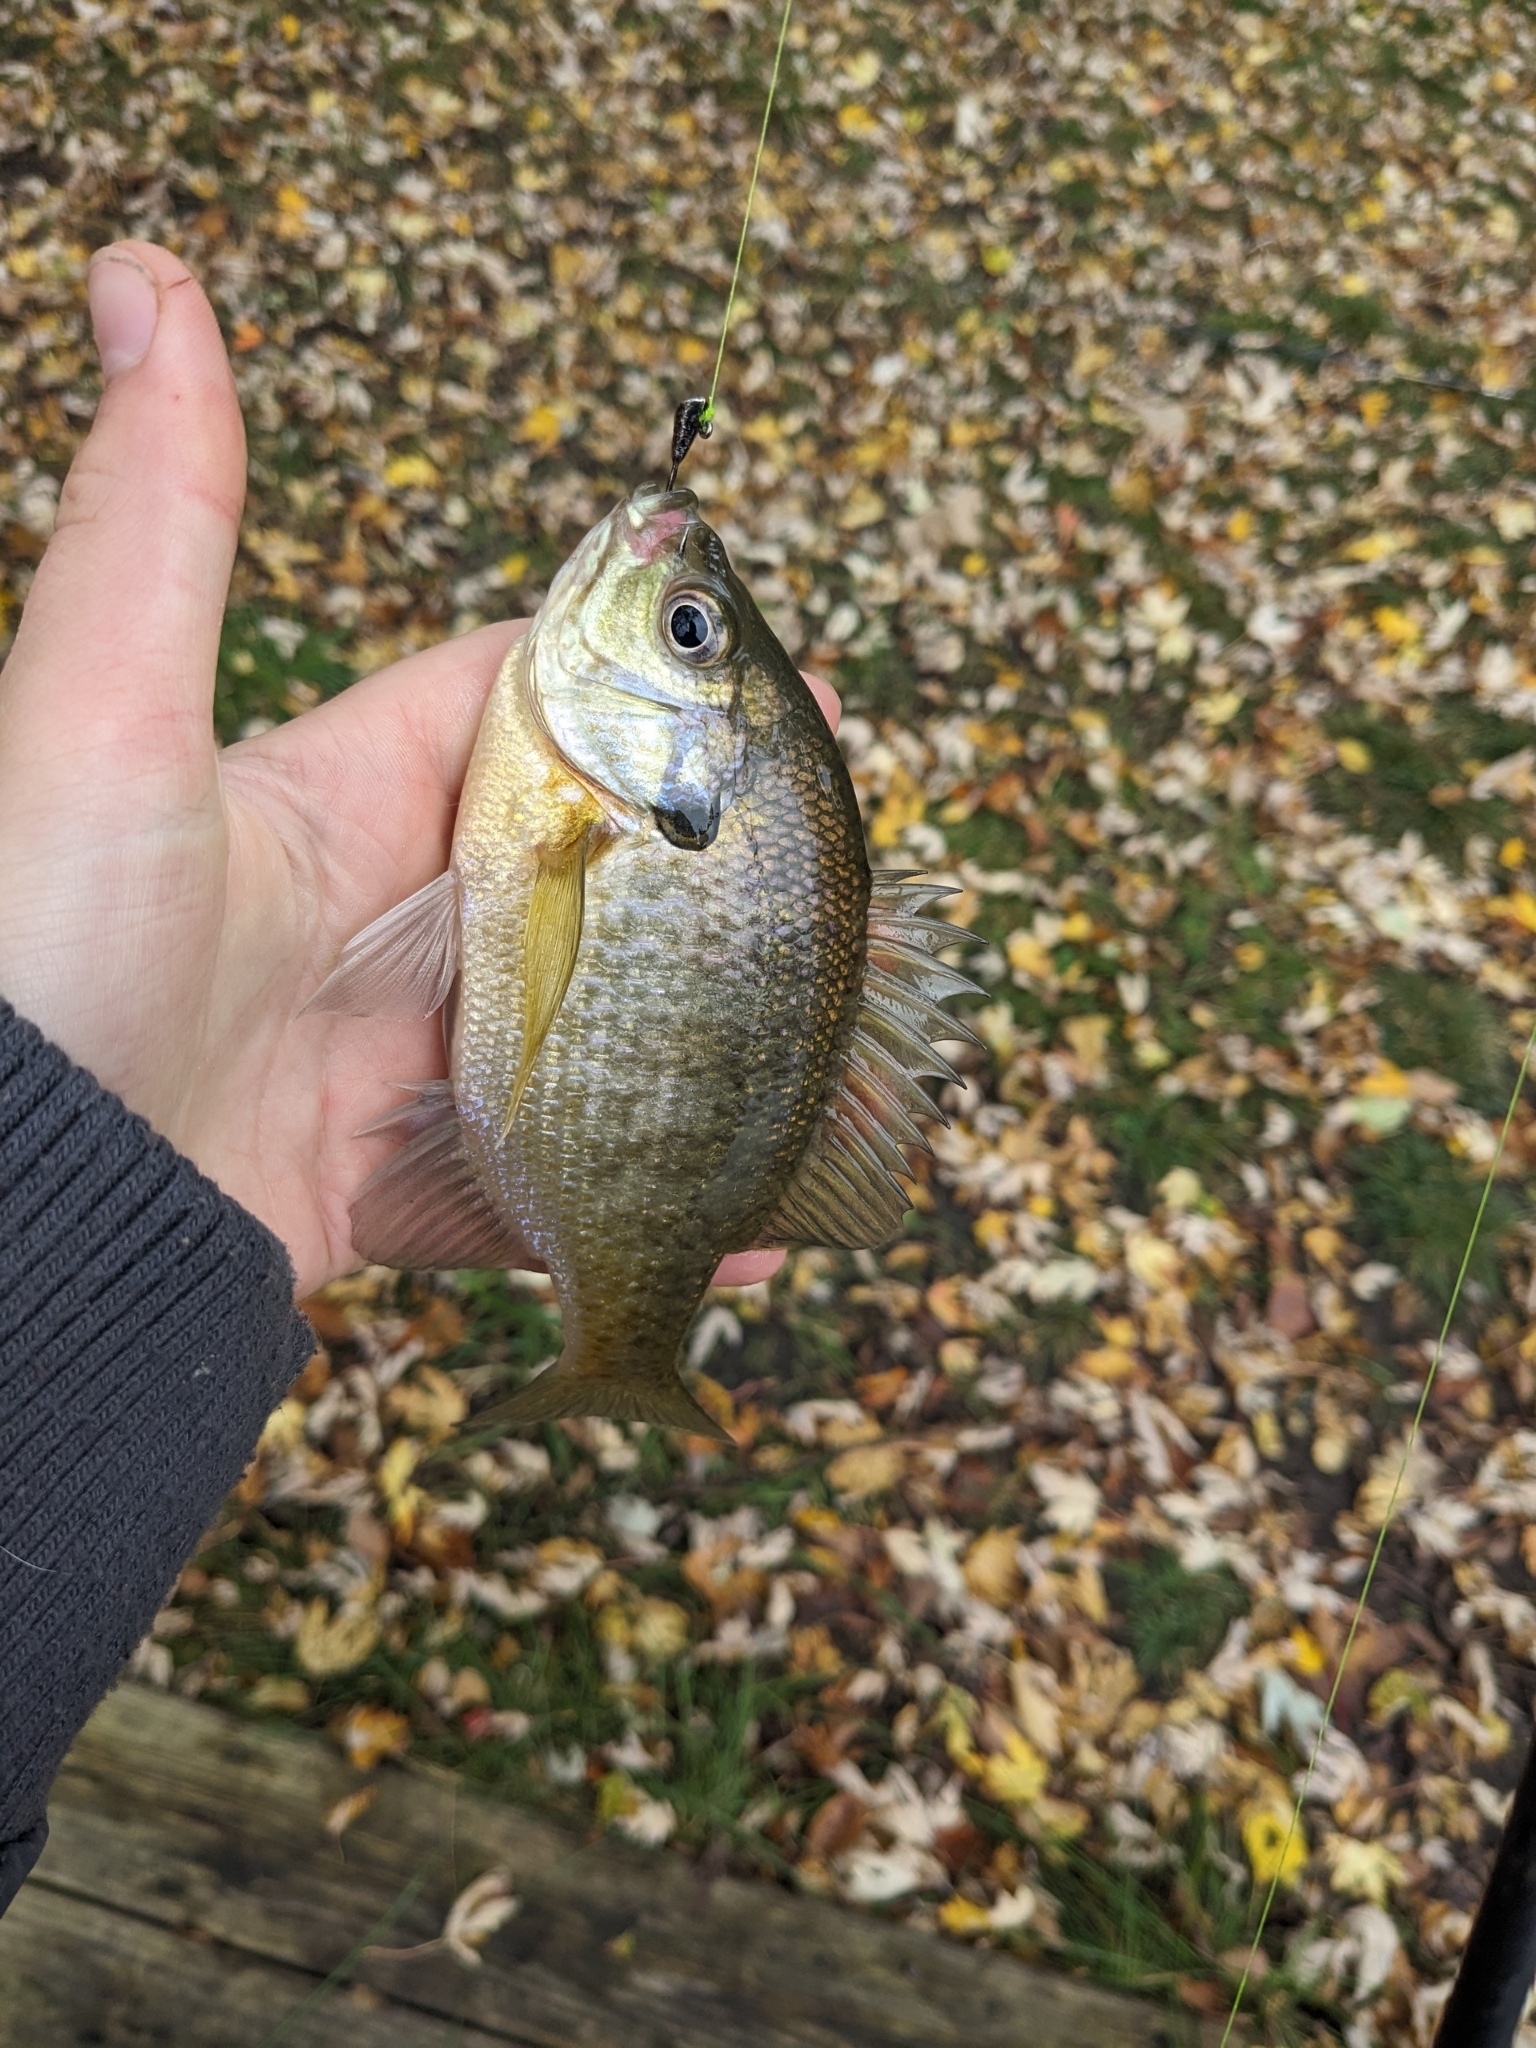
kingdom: Animalia
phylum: Chordata
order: Perciformes
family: Centrarchidae
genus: Lepomis
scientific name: Lepomis macrochirus
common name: Bluegill
